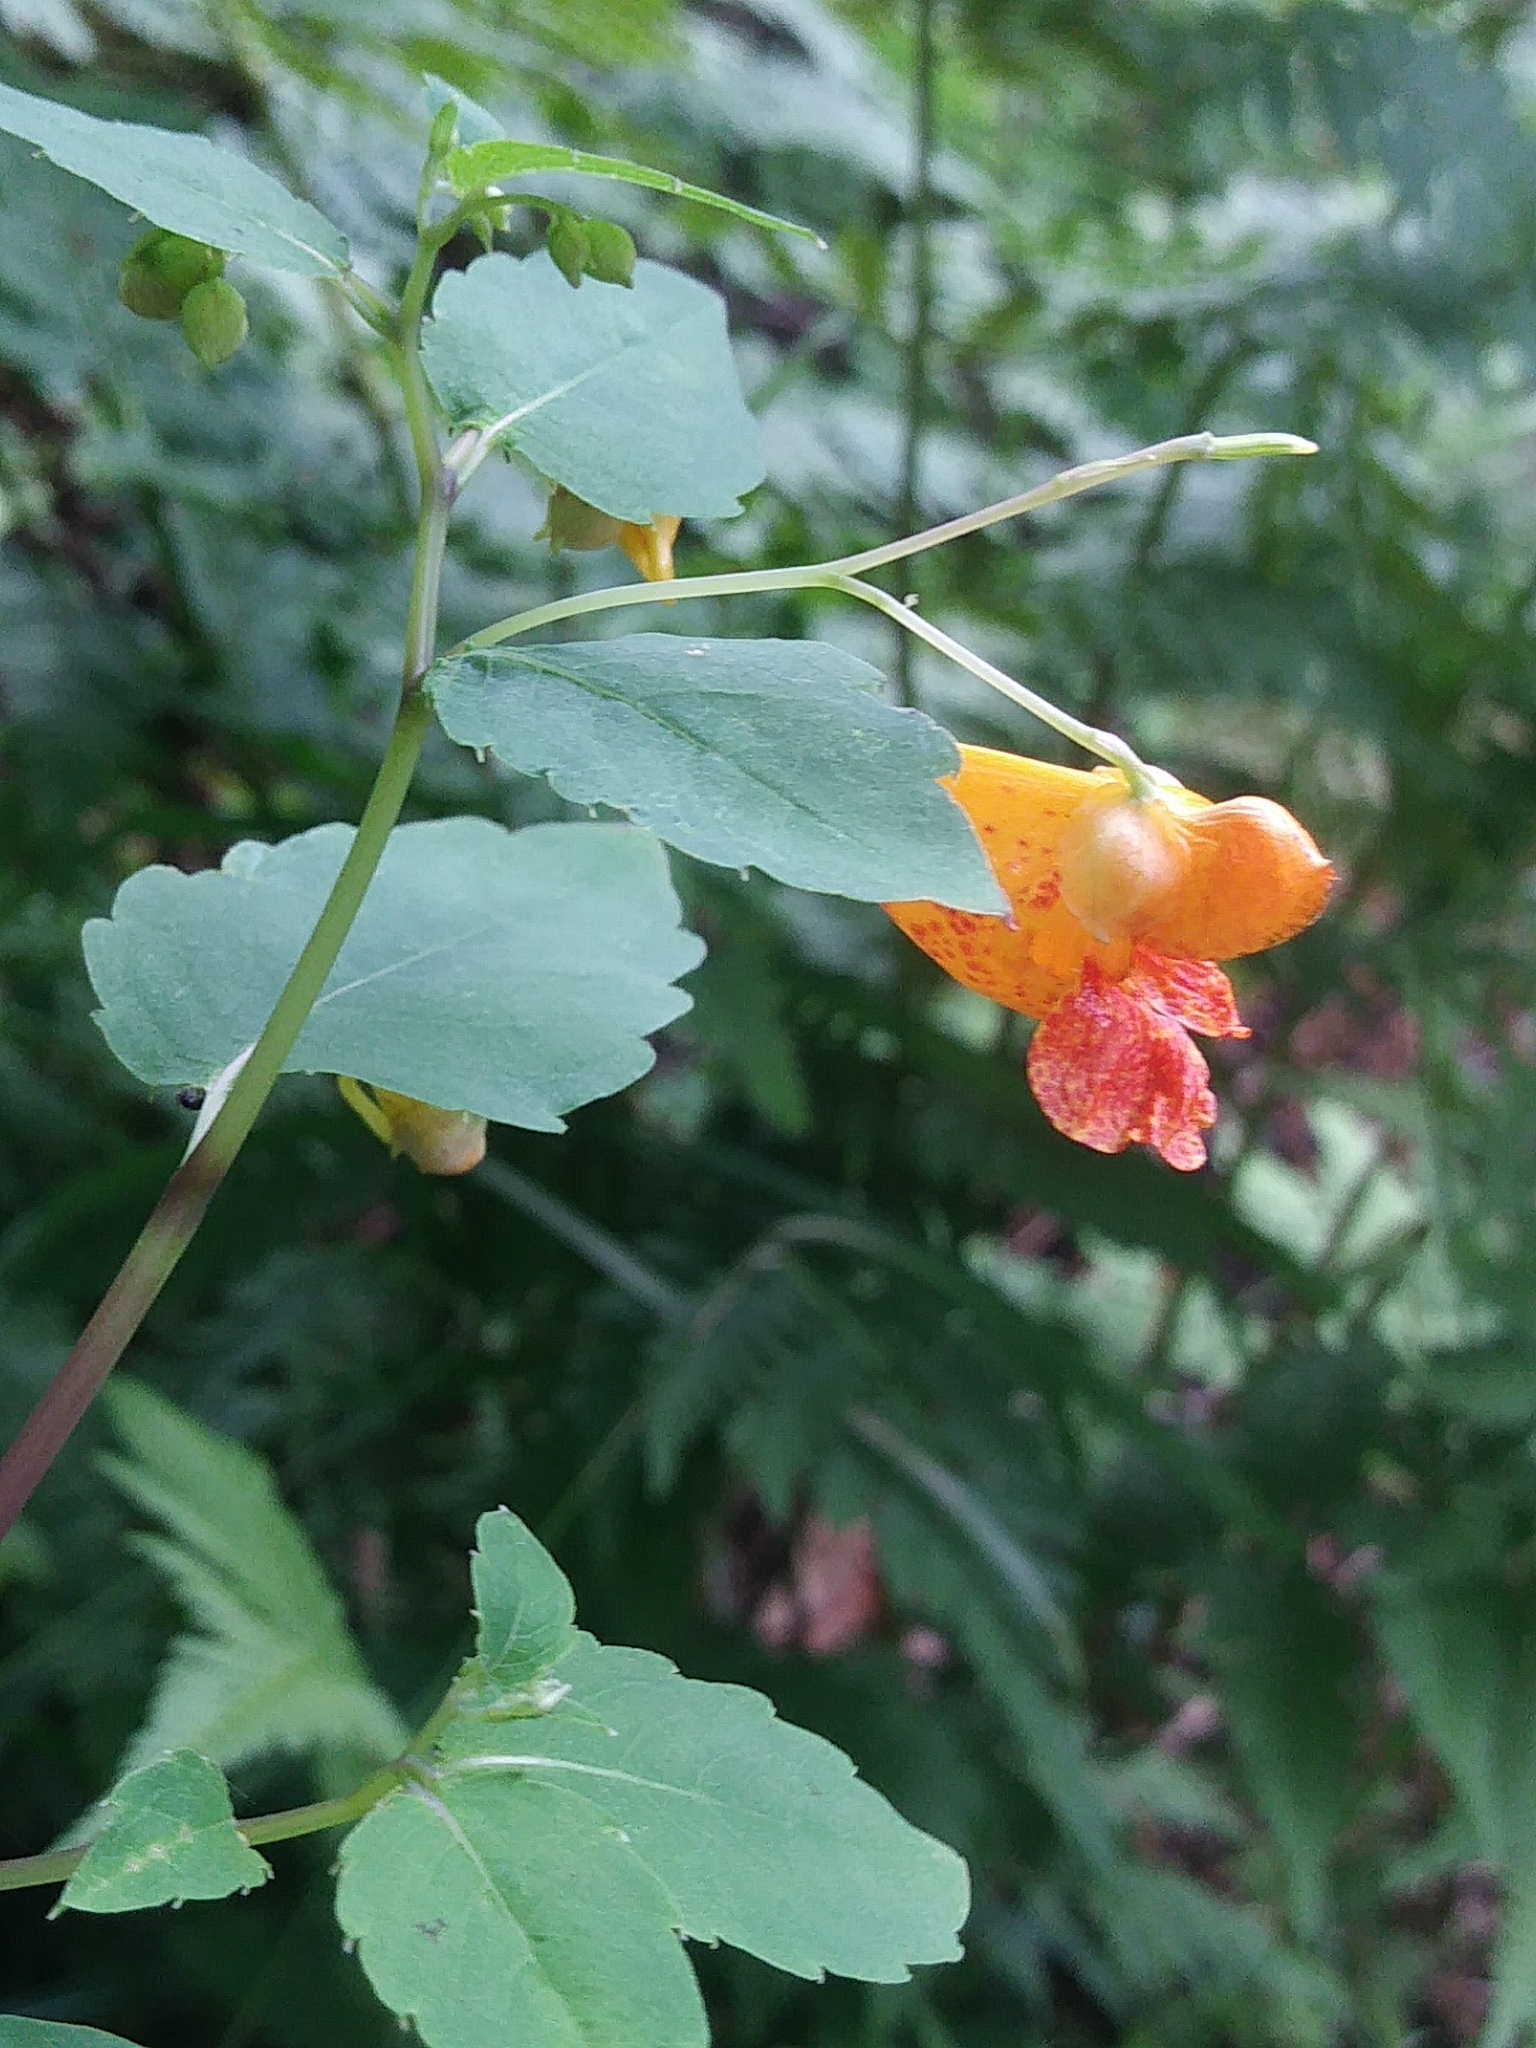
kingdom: Plantae
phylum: Tracheophyta
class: Magnoliopsida
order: Ericales
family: Balsaminaceae
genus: Impatiens
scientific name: Impatiens capensis
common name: Orange balsam
